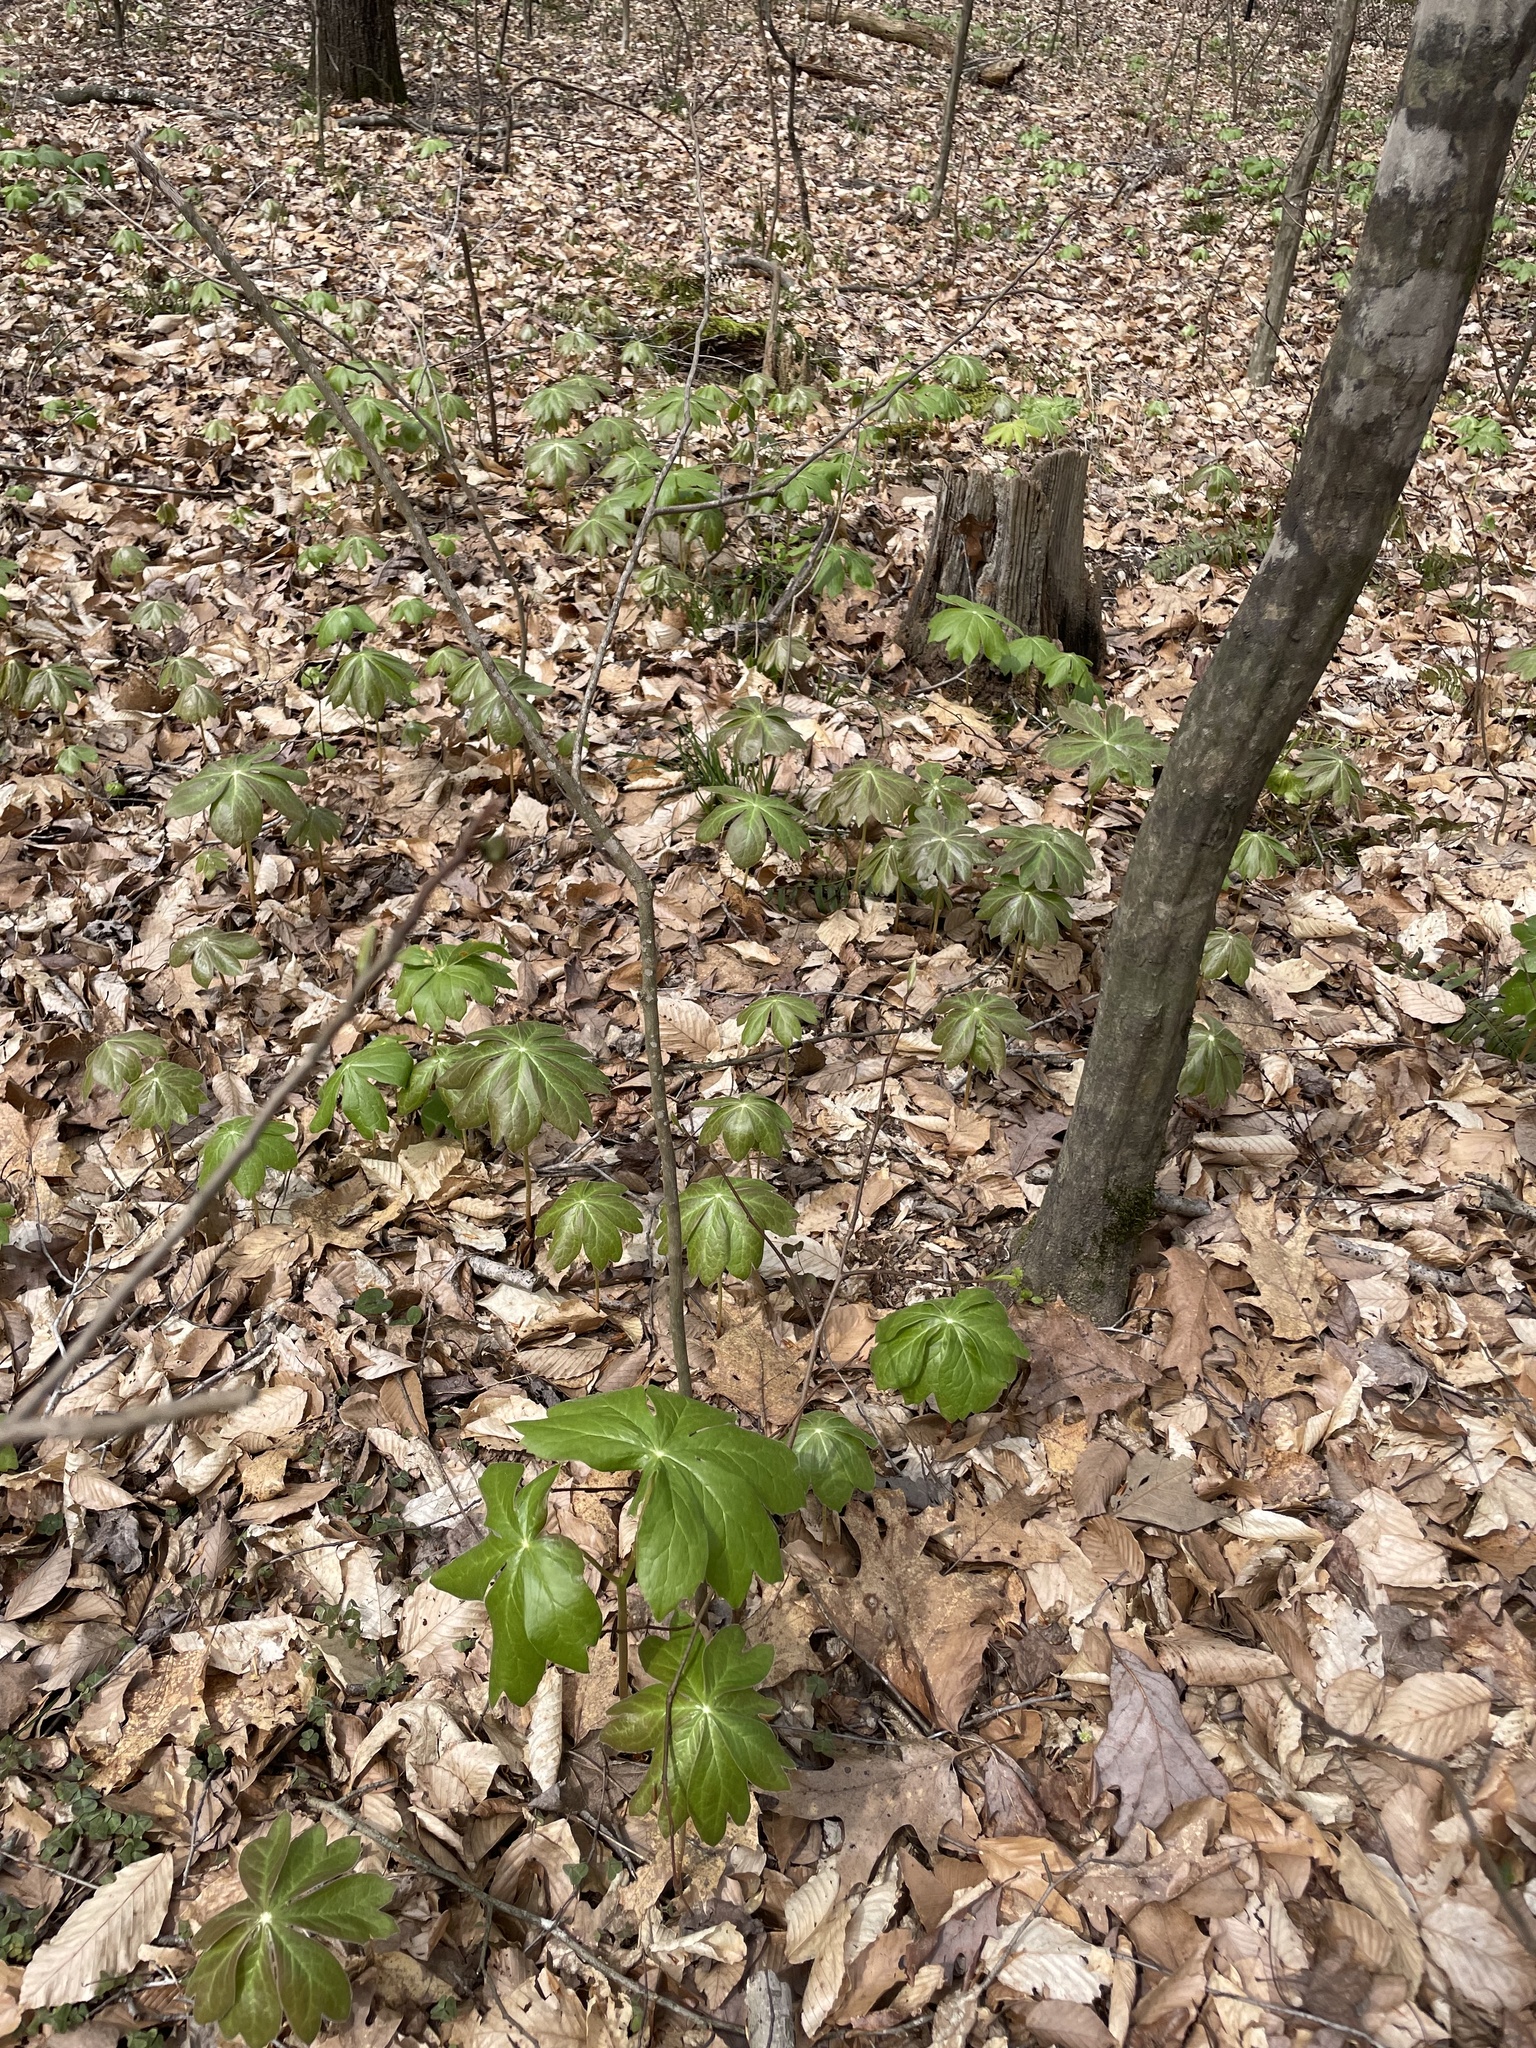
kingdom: Plantae
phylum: Tracheophyta
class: Magnoliopsida
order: Ranunculales
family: Berberidaceae
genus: Podophyllum
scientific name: Podophyllum peltatum
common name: Wild mandrake
